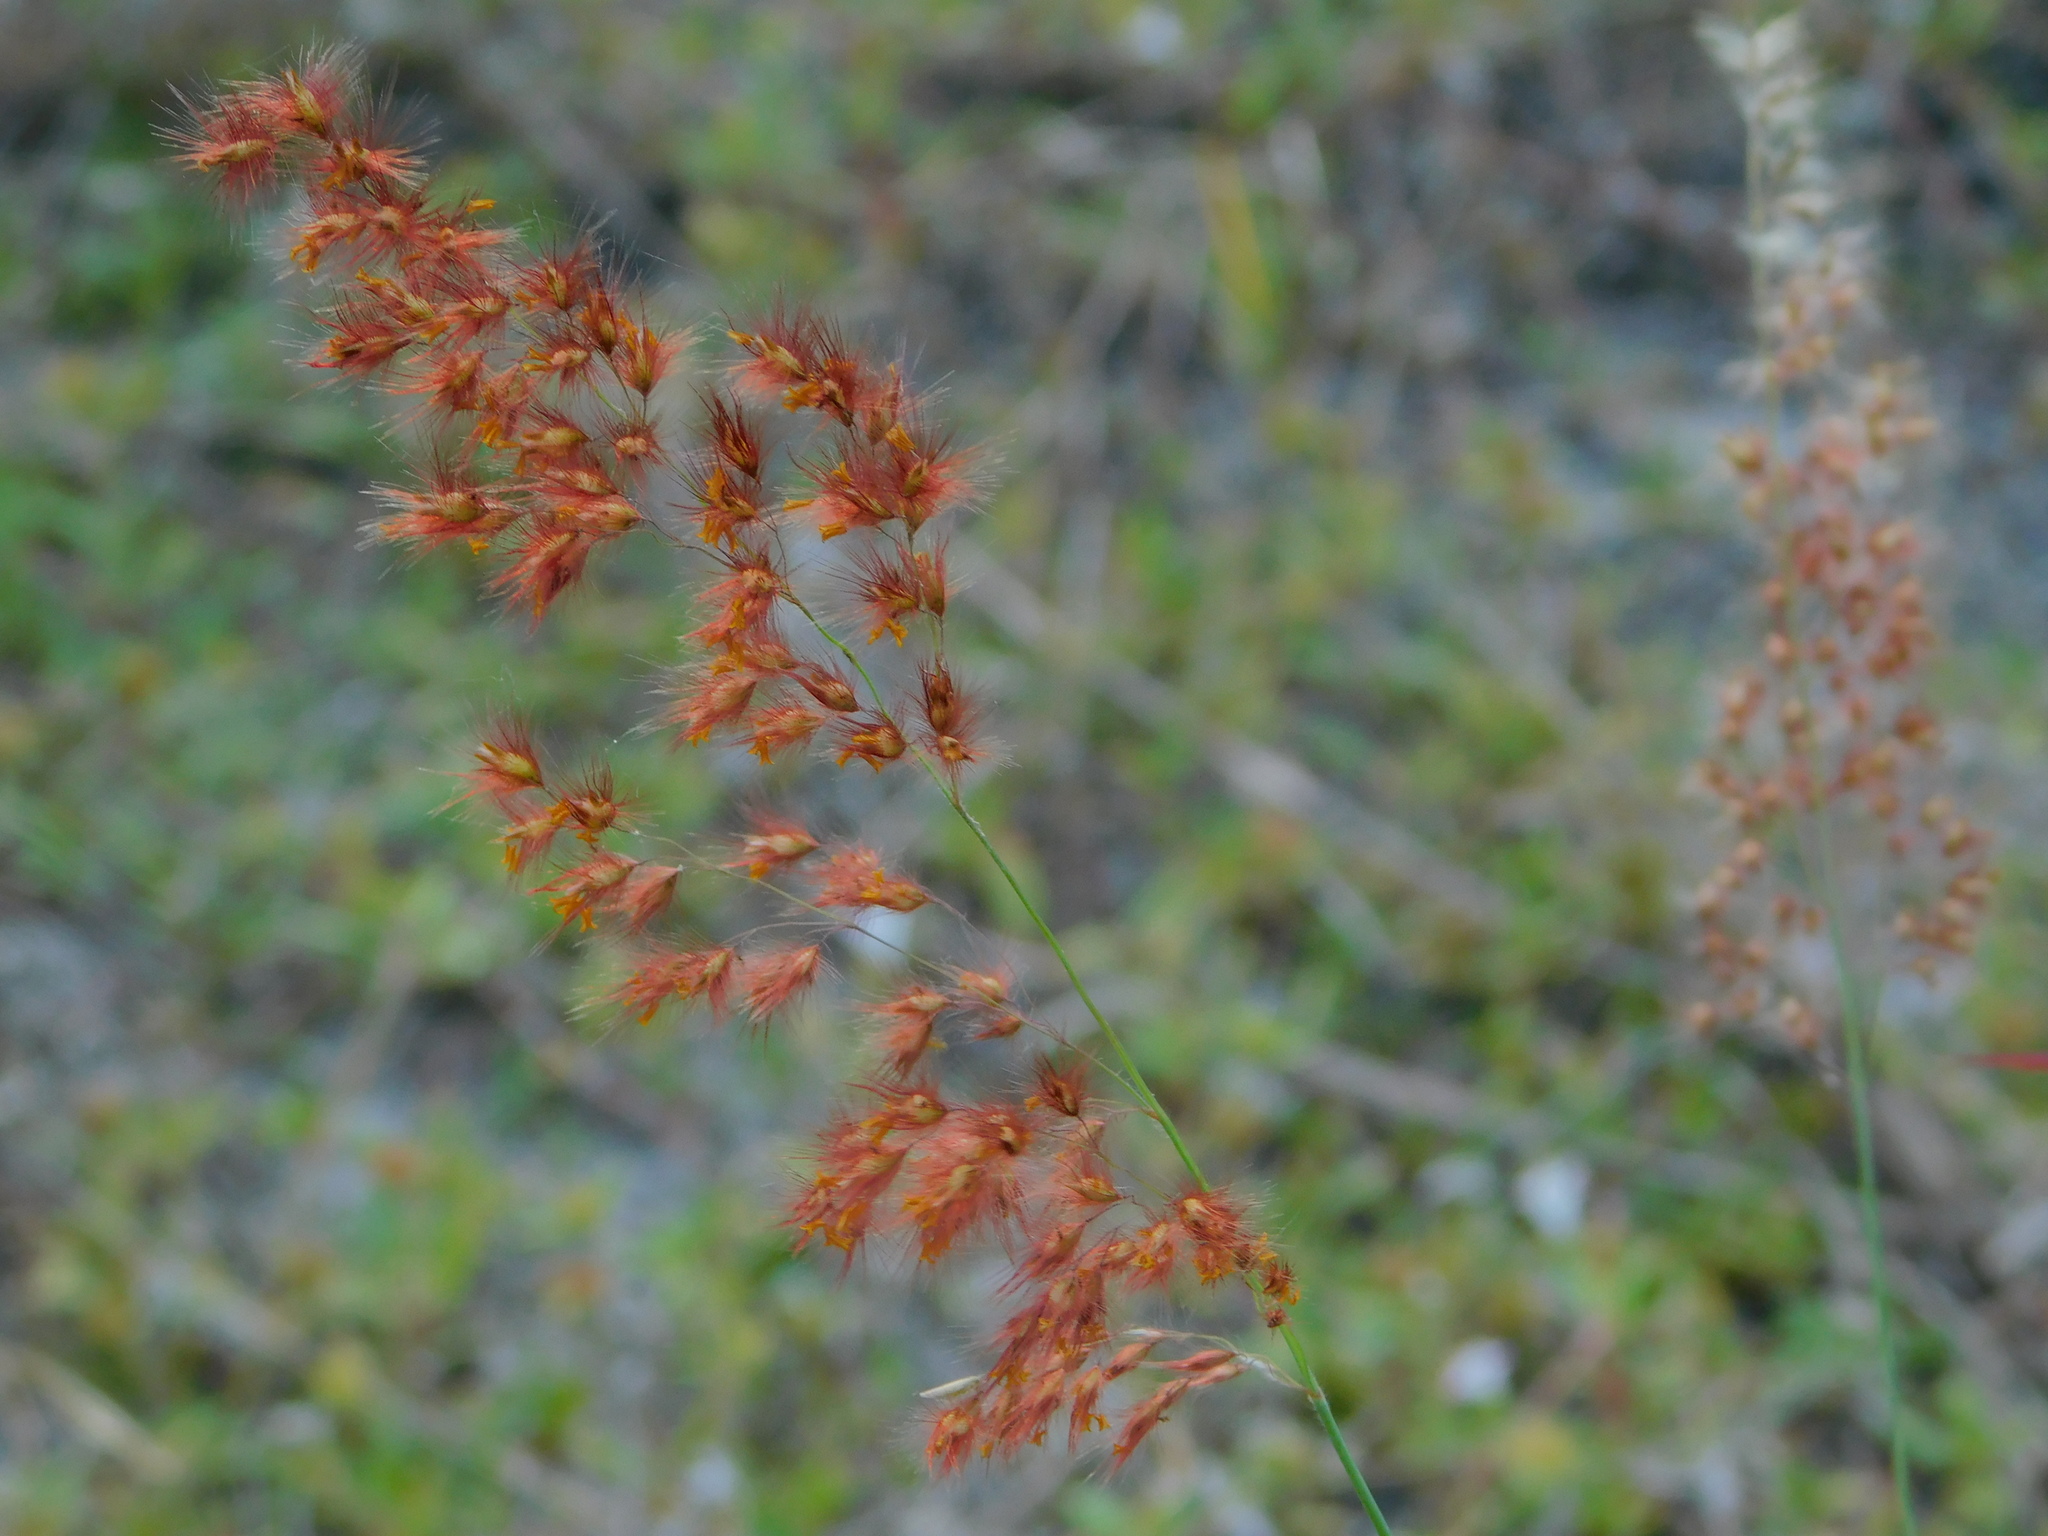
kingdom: Plantae
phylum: Tracheophyta
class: Liliopsida
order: Poales
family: Poaceae
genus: Melinis
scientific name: Melinis repens
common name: Rose natal grass
